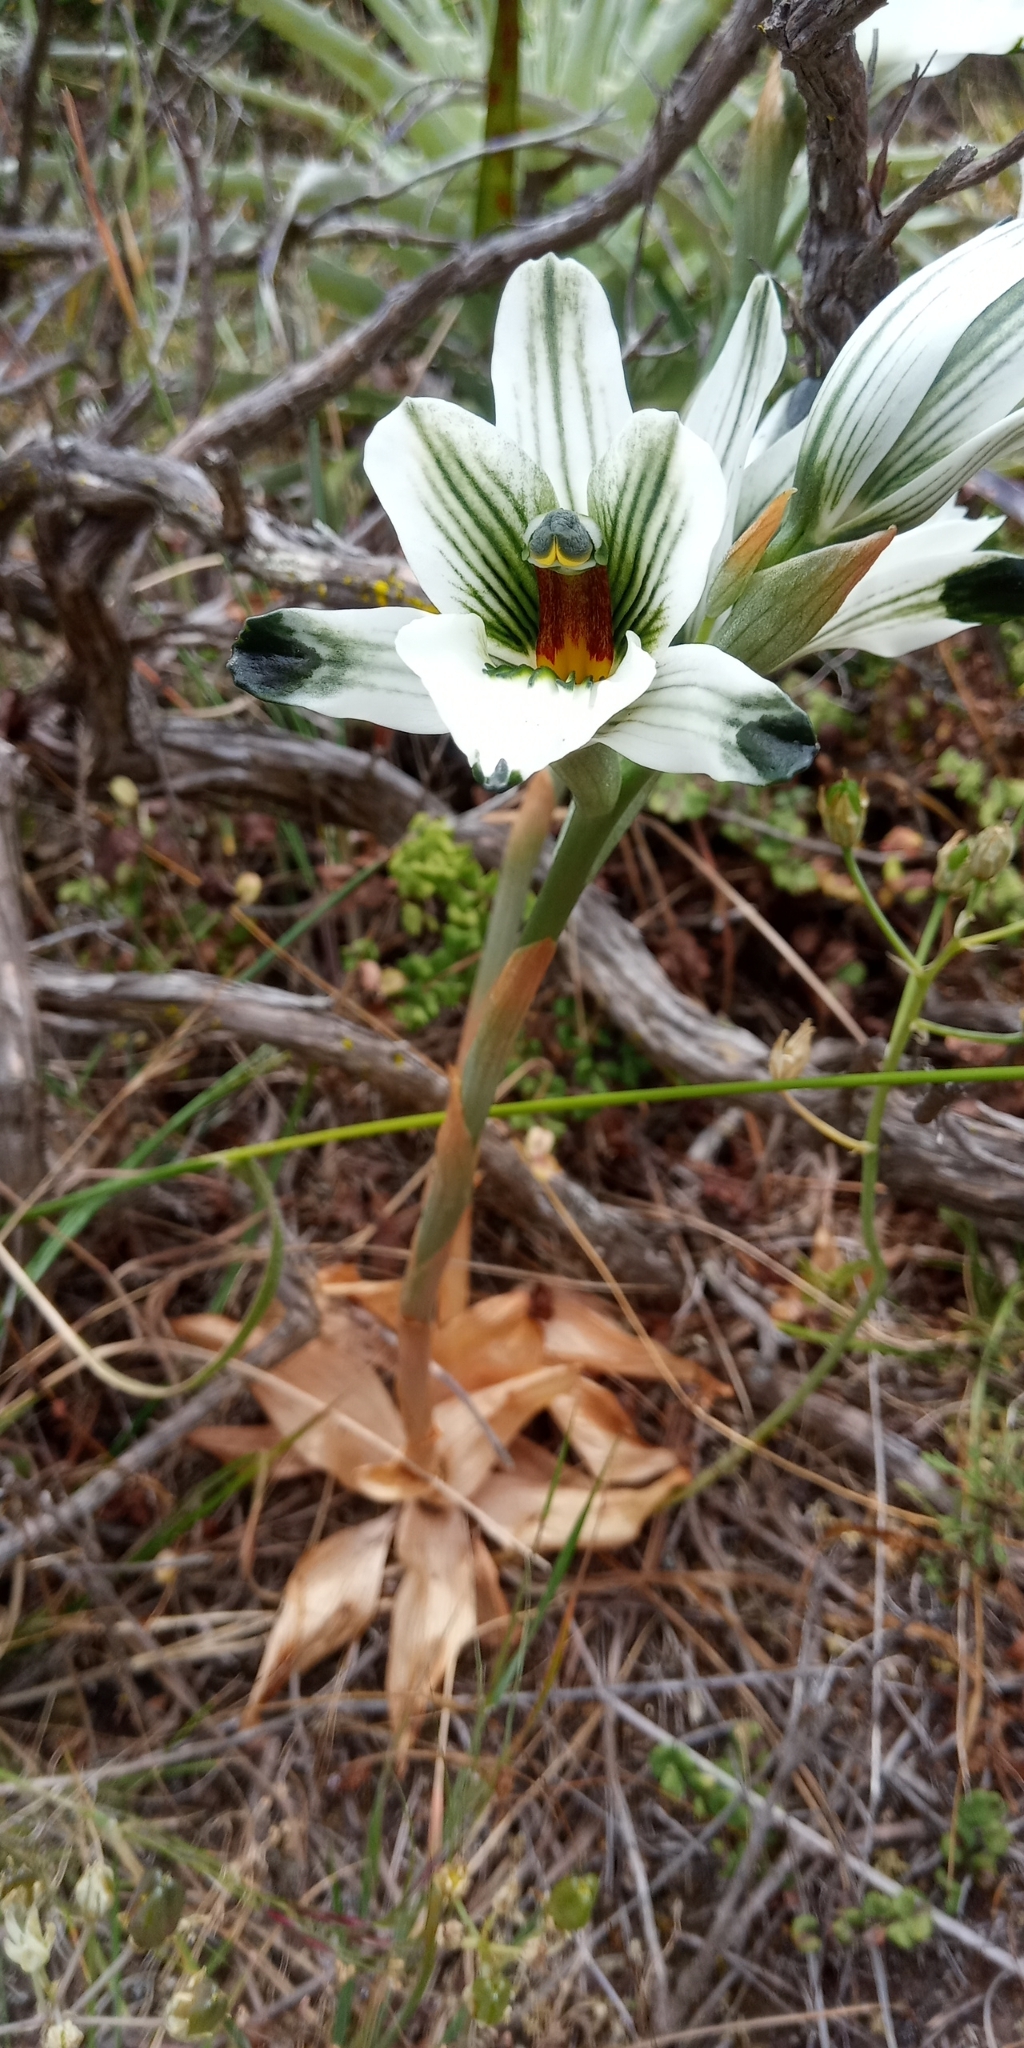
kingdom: Plantae
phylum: Tracheophyta
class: Liliopsida
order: Asparagales
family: Orchidaceae
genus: Chloraea
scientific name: Chloraea bletioides
